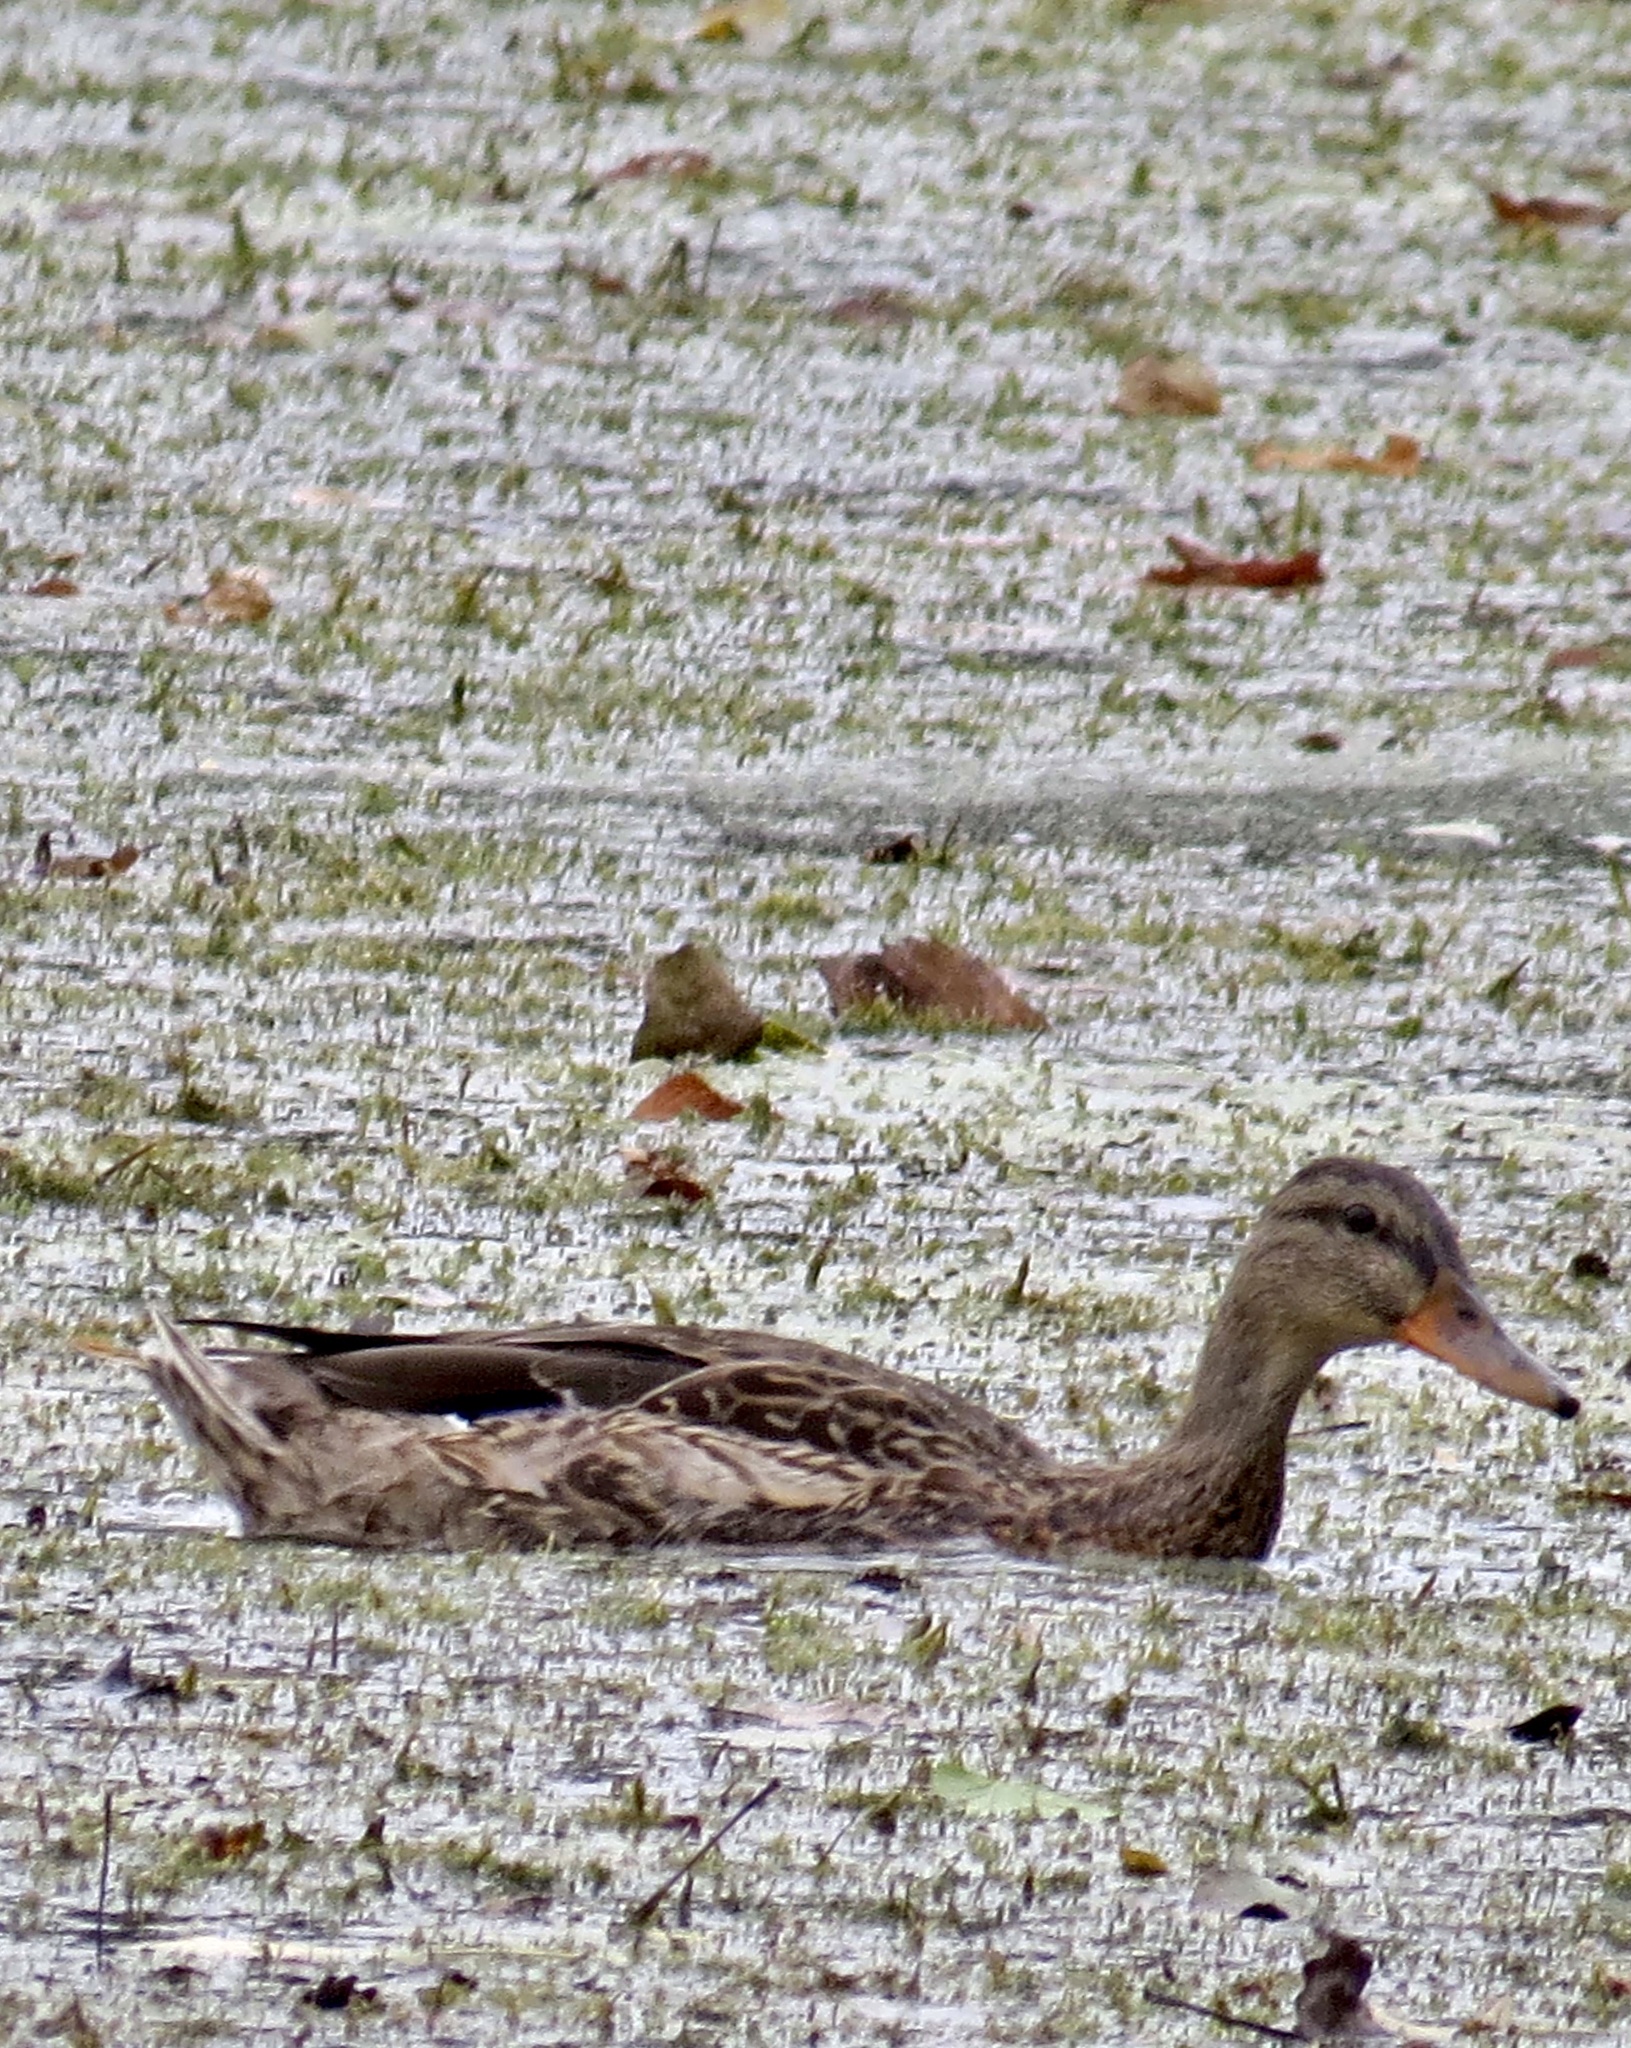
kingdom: Animalia
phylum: Chordata
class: Aves
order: Anseriformes
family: Anatidae
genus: Anas
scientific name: Anas platyrhynchos
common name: Mallard
